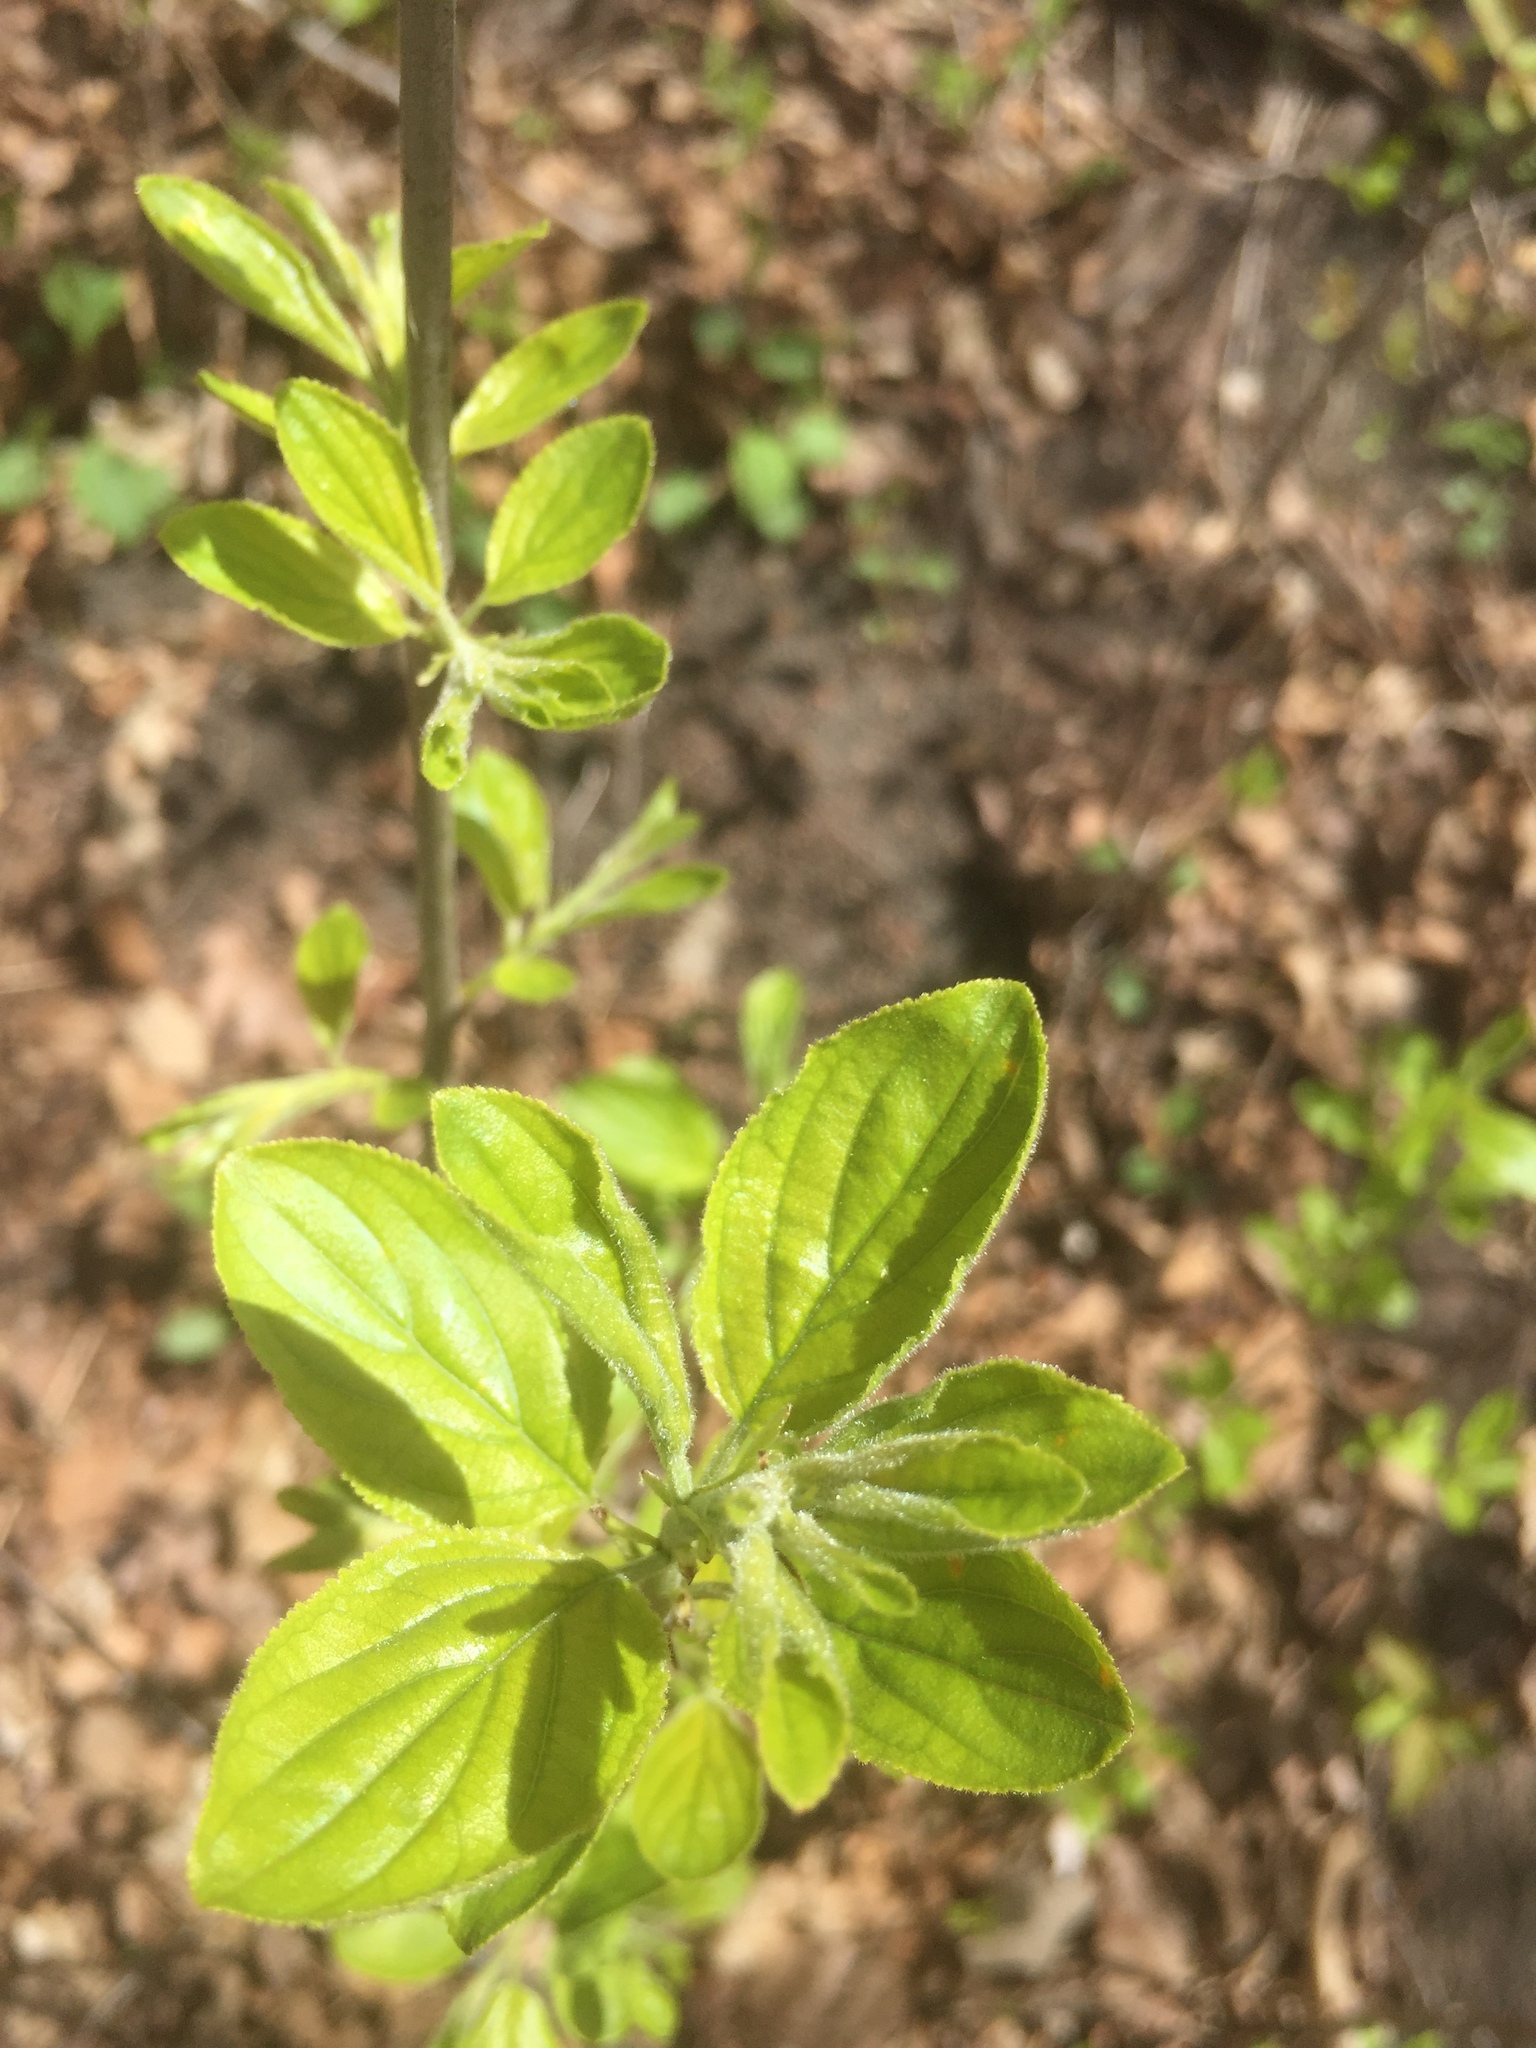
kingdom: Plantae
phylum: Tracheophyta
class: Magnoliopsida
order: Rosales
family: Rhamnaceae
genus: Rhamnus
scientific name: Rhamnus cathartica
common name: Common buckthorn
